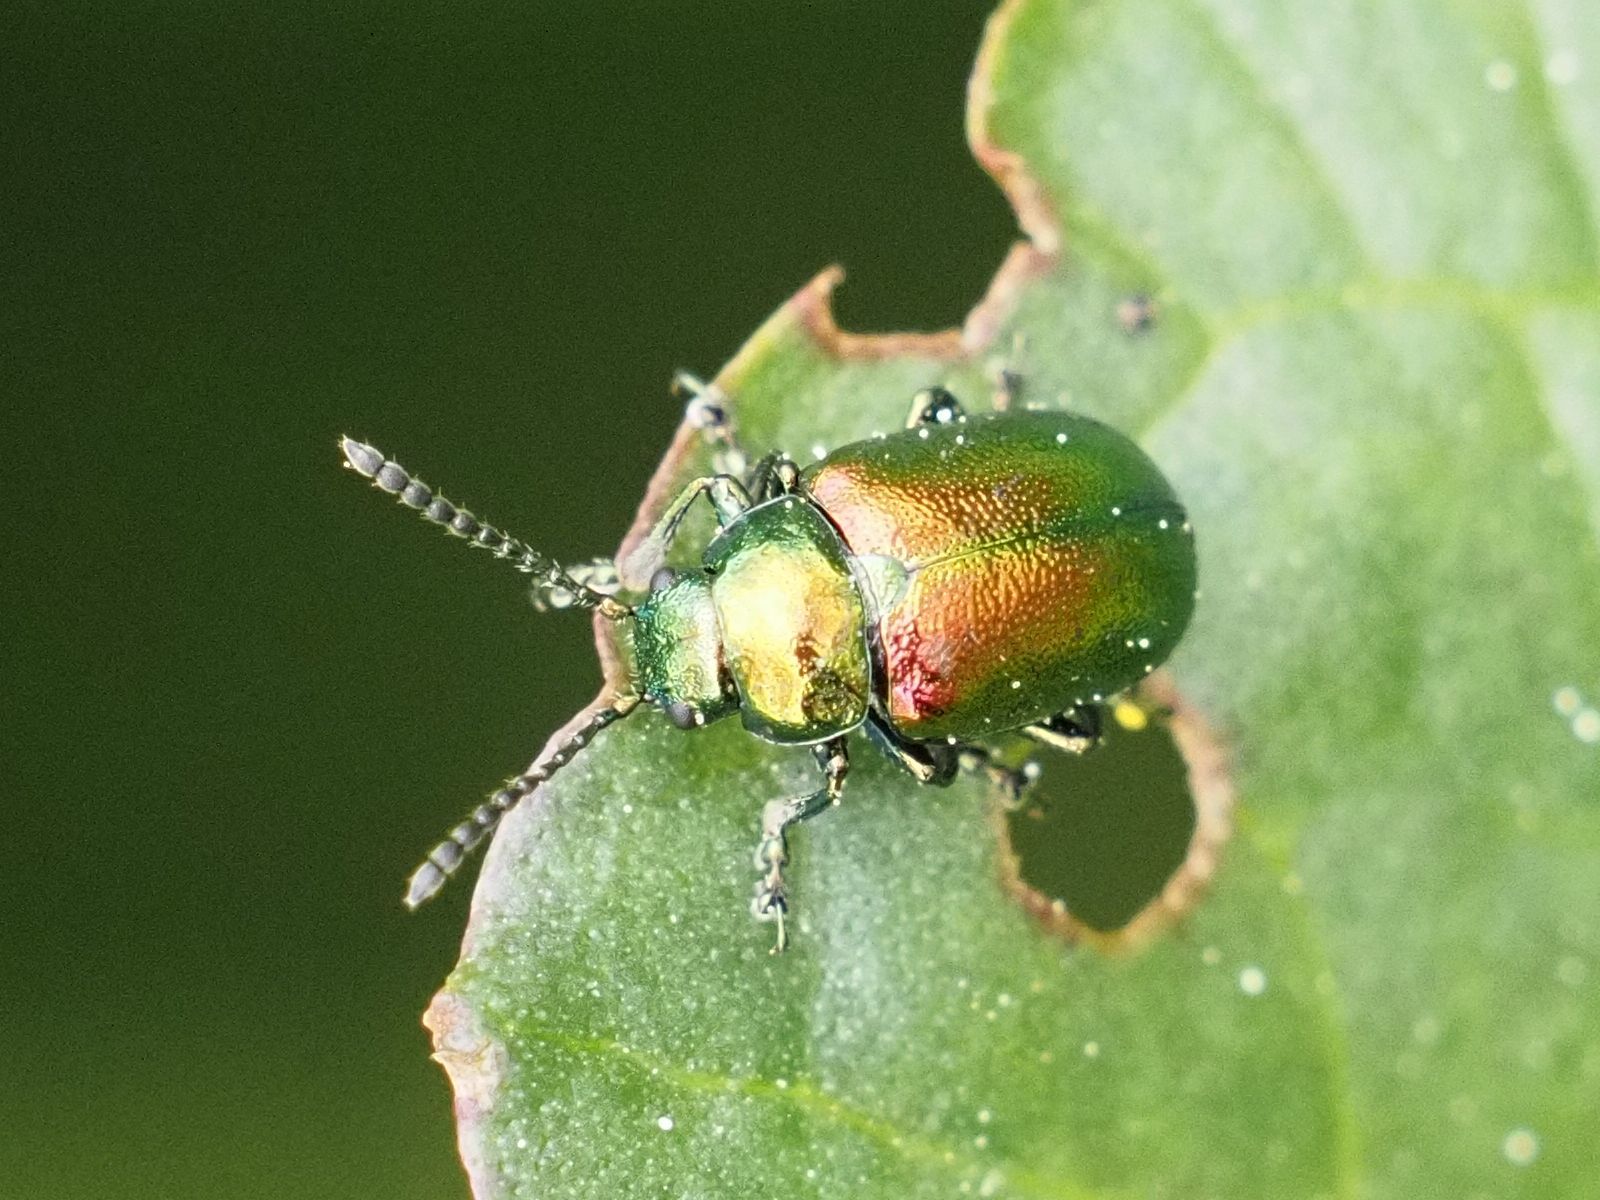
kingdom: Animalia
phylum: Arthropoda
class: Insecta
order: Coleoptera
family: Chrysomelidae
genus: Gastrophysa
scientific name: Gastrophysa viridula
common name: Green dock beetle
